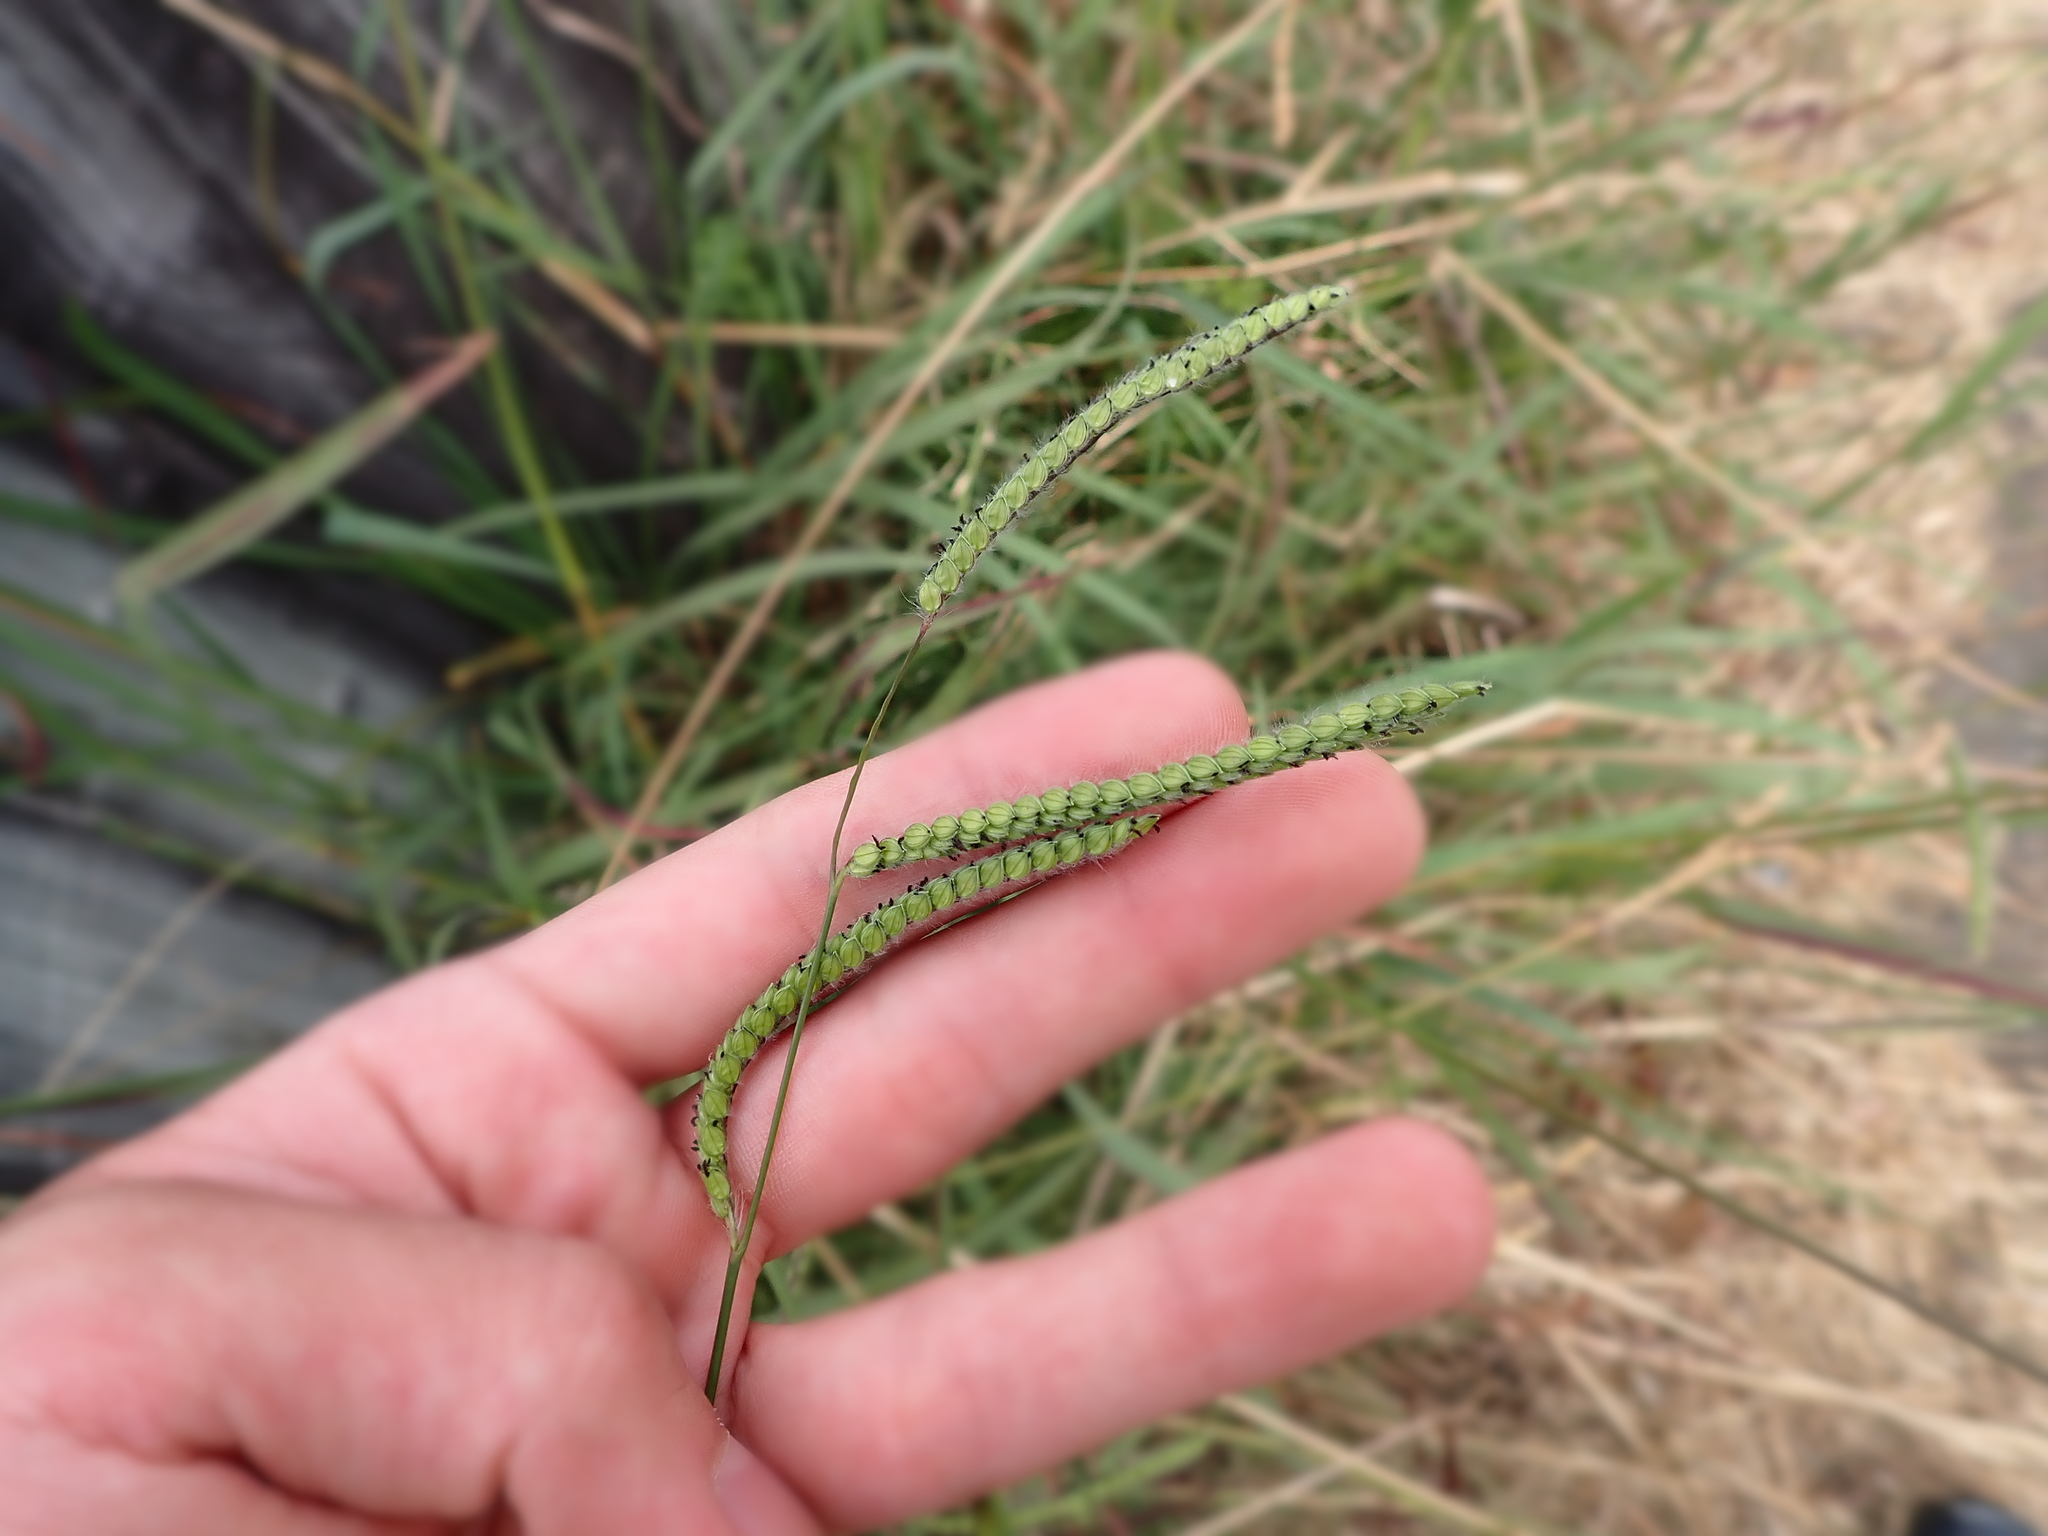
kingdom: Plantae
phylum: Tracheophyta
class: Liliopsida
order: Poales
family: Poaceae
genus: Paspalum
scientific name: Paspalum dilatatum
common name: Dallisgrass
